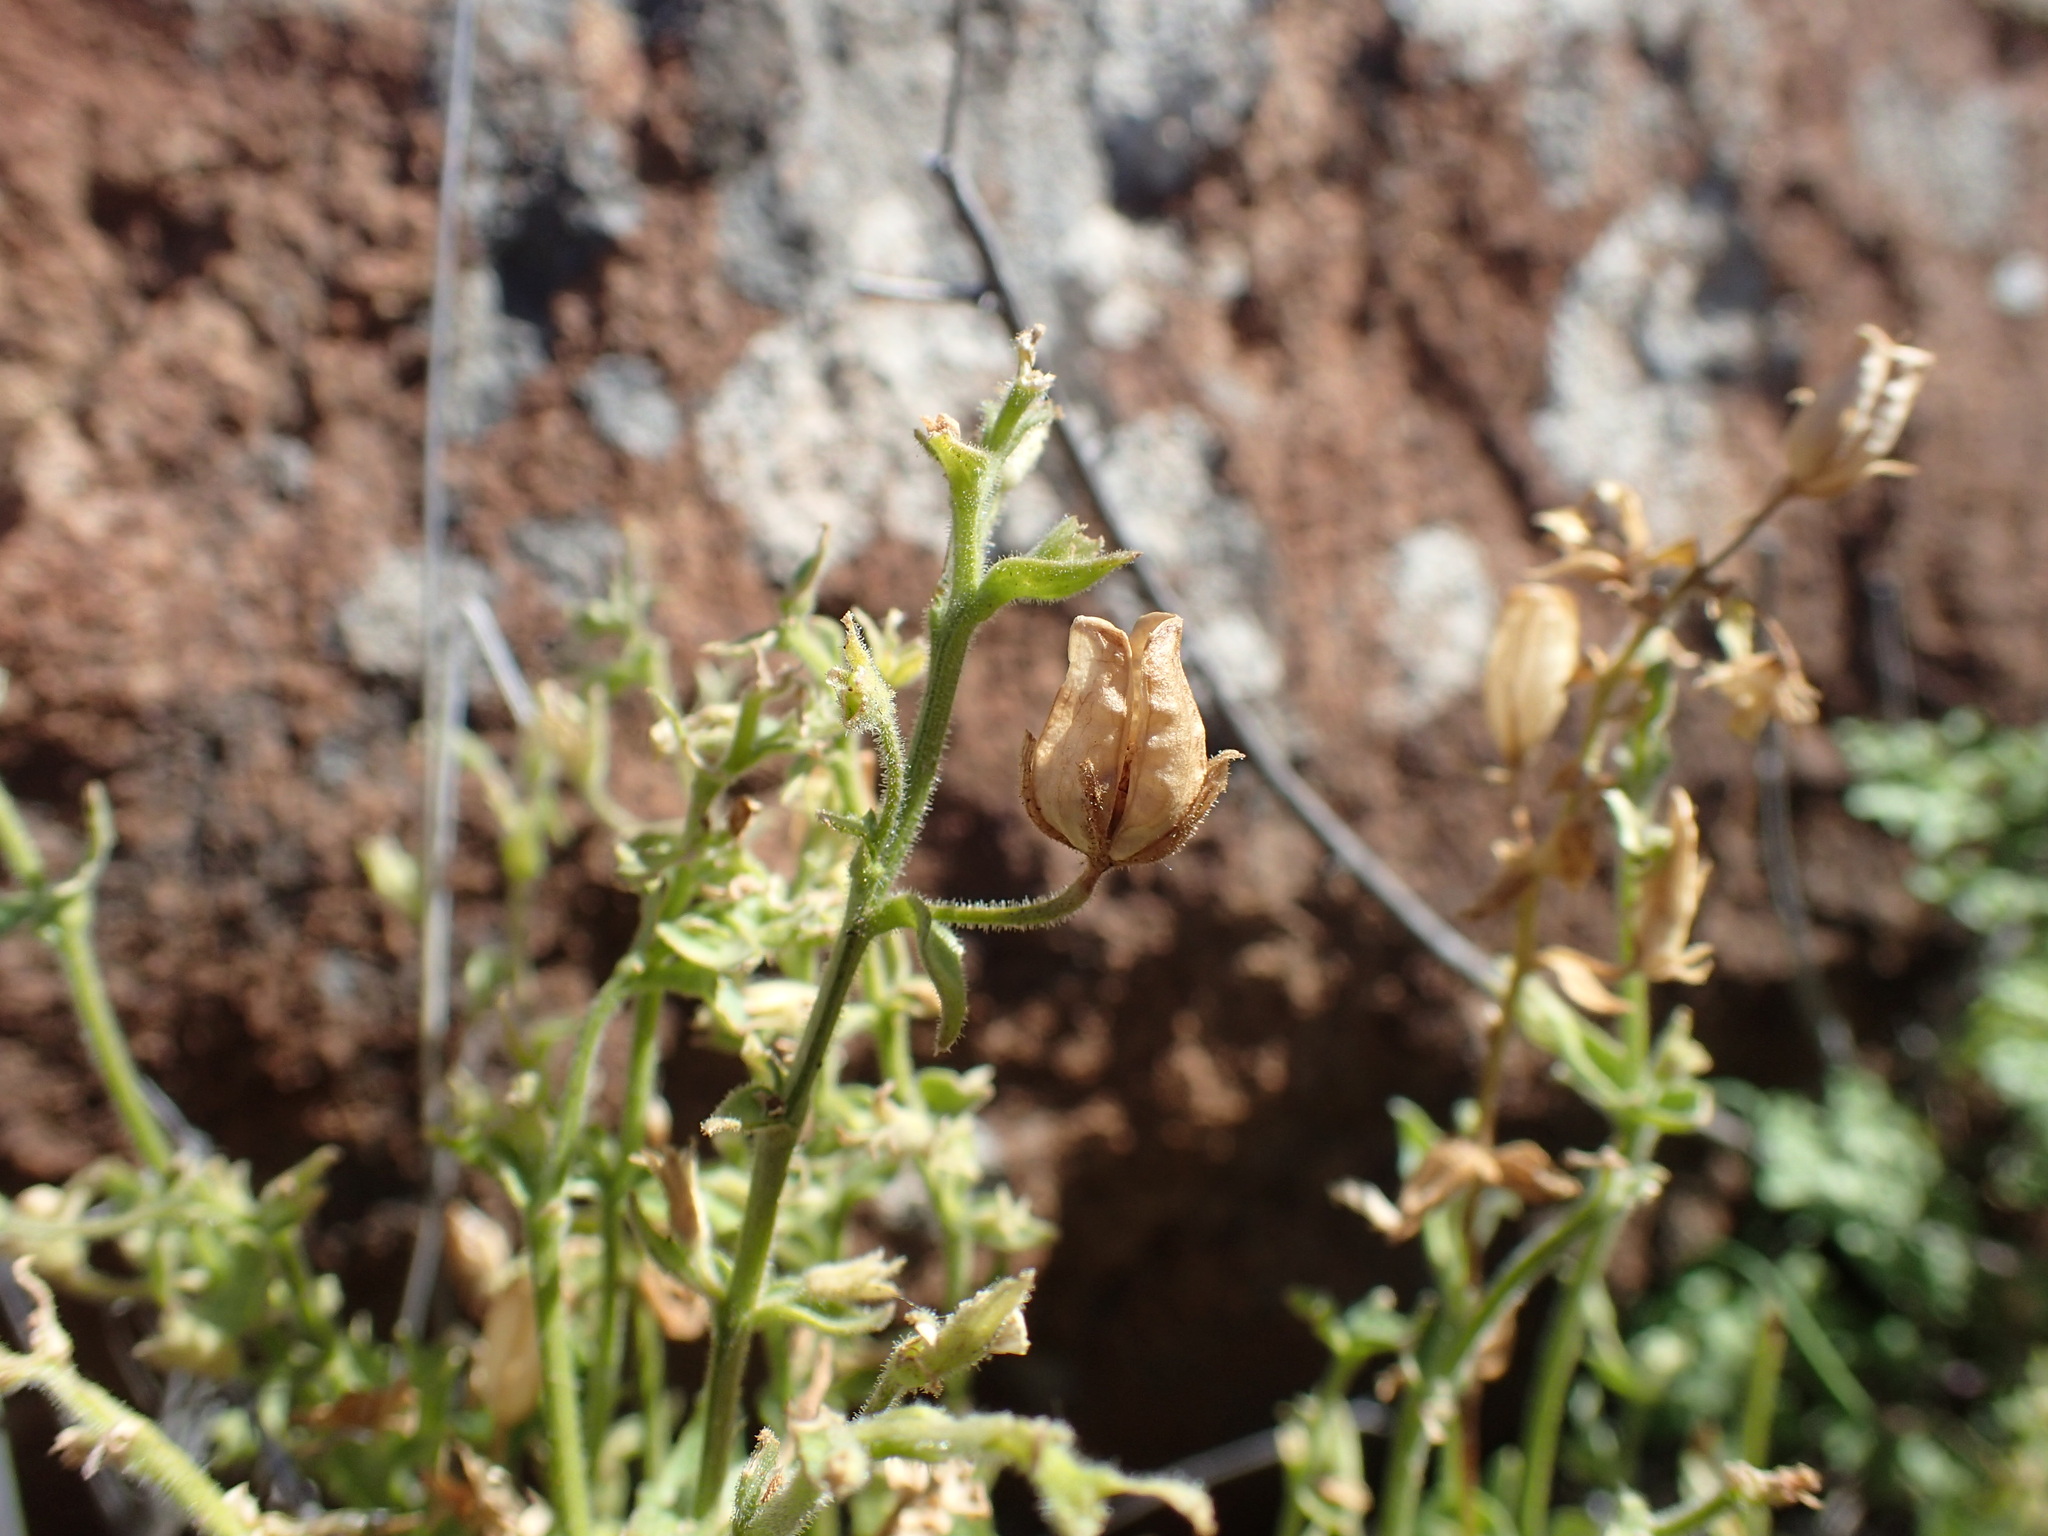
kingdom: Plantae
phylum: Tracheophyta
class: Magnoliopsida
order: Lamiales
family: Scrophulariaceae
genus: Nemesia
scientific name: Nemesia hanoverica
